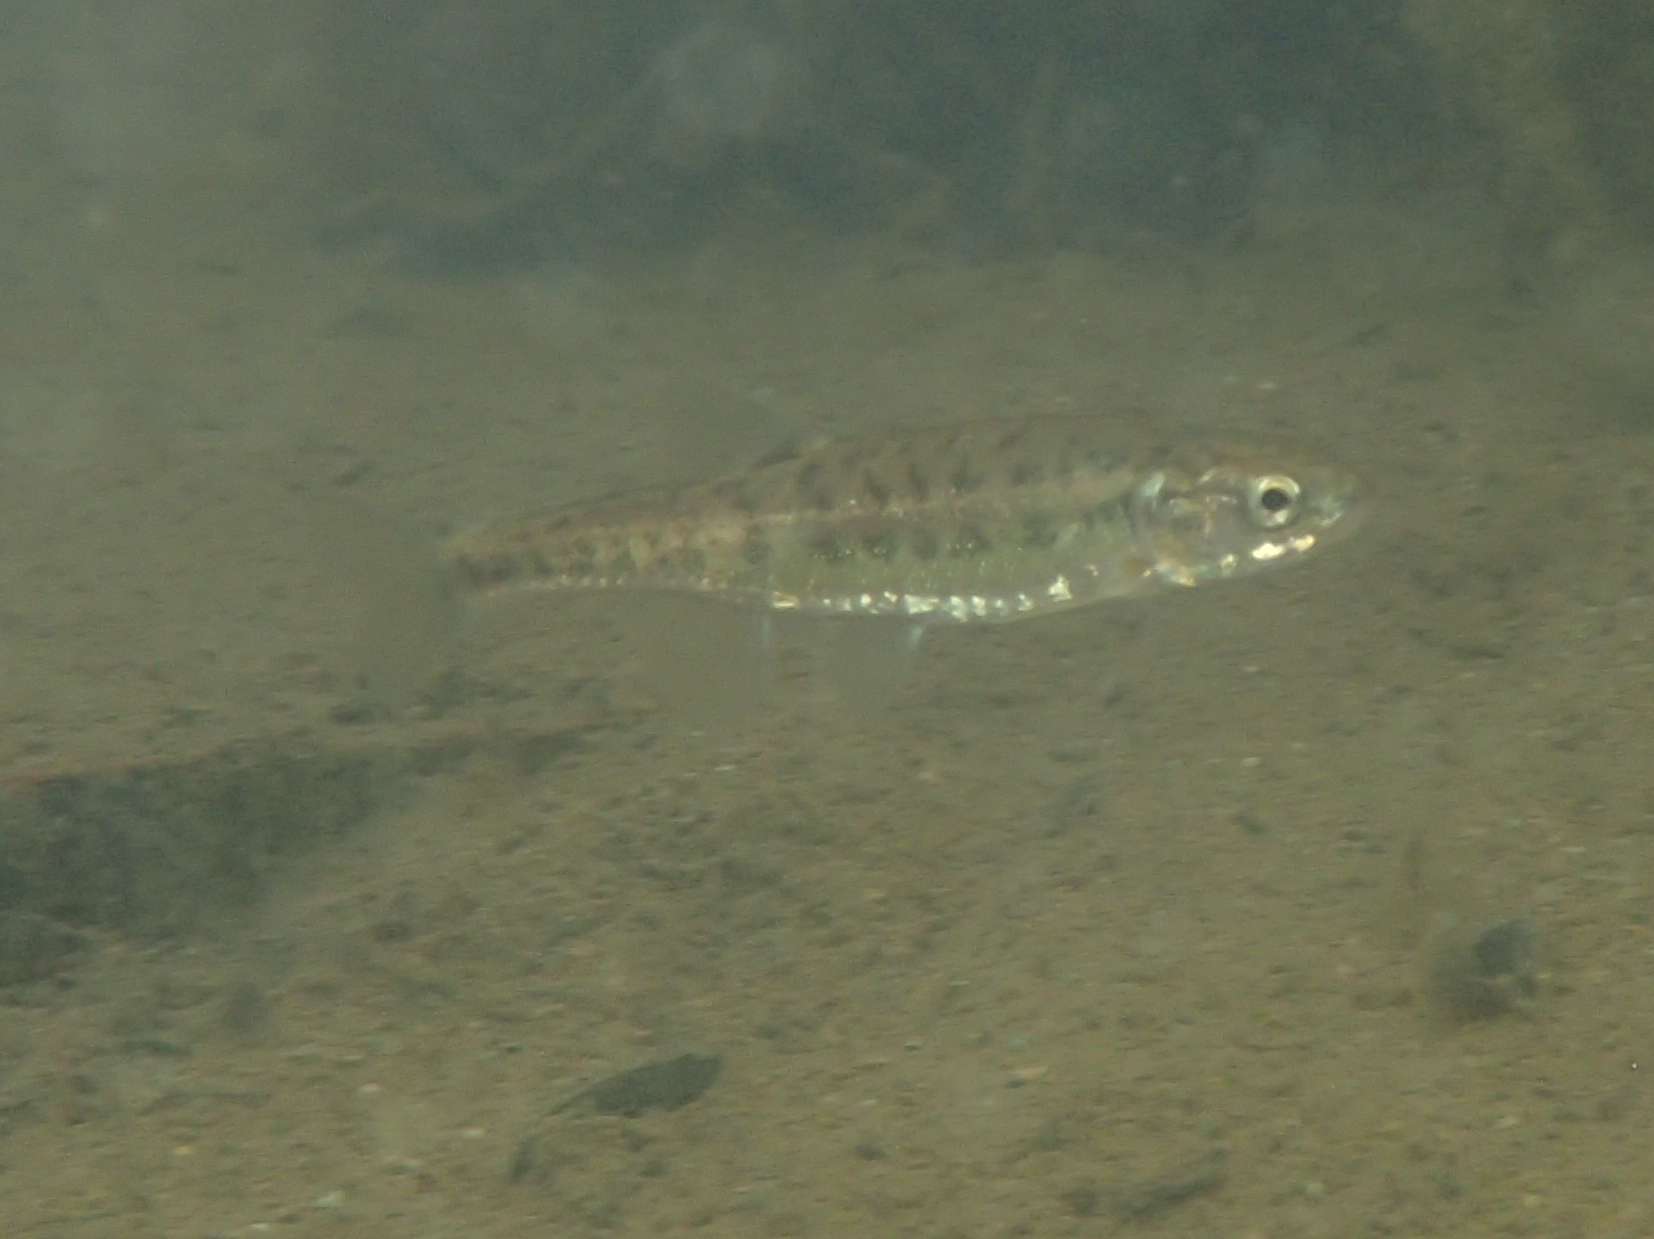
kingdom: Animalia
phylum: Chordata
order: Cypriniformes
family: Cyprinidae
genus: Phoxinus
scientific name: Phoxinus phoxinus
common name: Minnow
